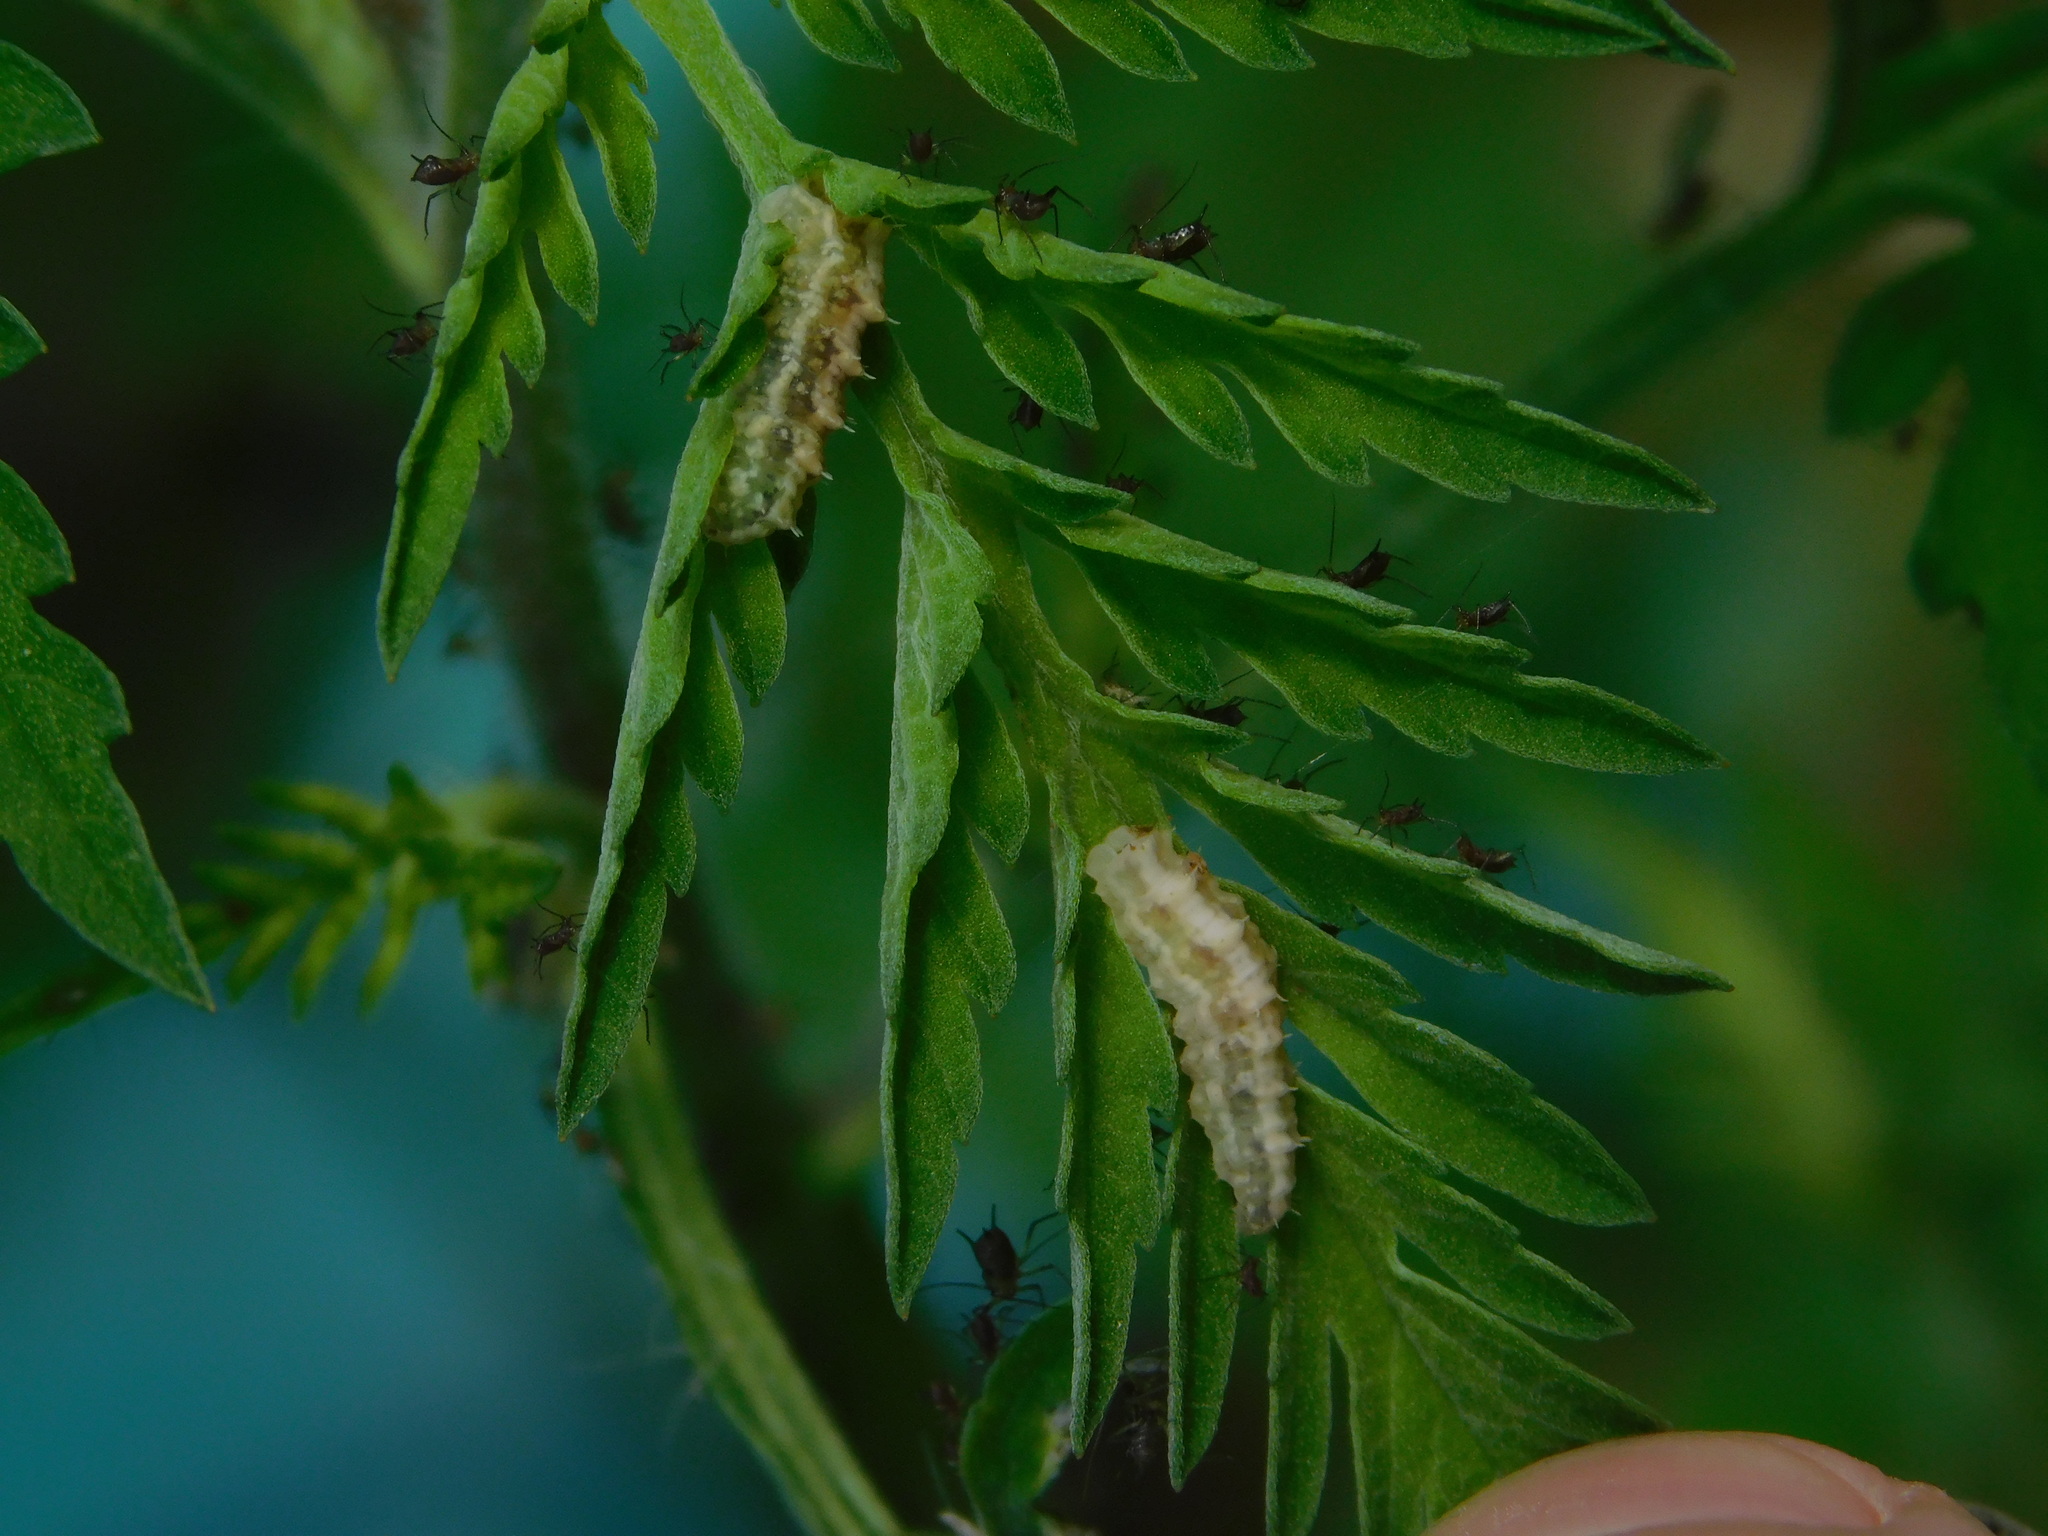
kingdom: Animalia
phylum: Arthropoda
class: Insecta
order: Diptera
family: Syrphidae
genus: Dioprosopa
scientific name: Dioprosopa clavatus
